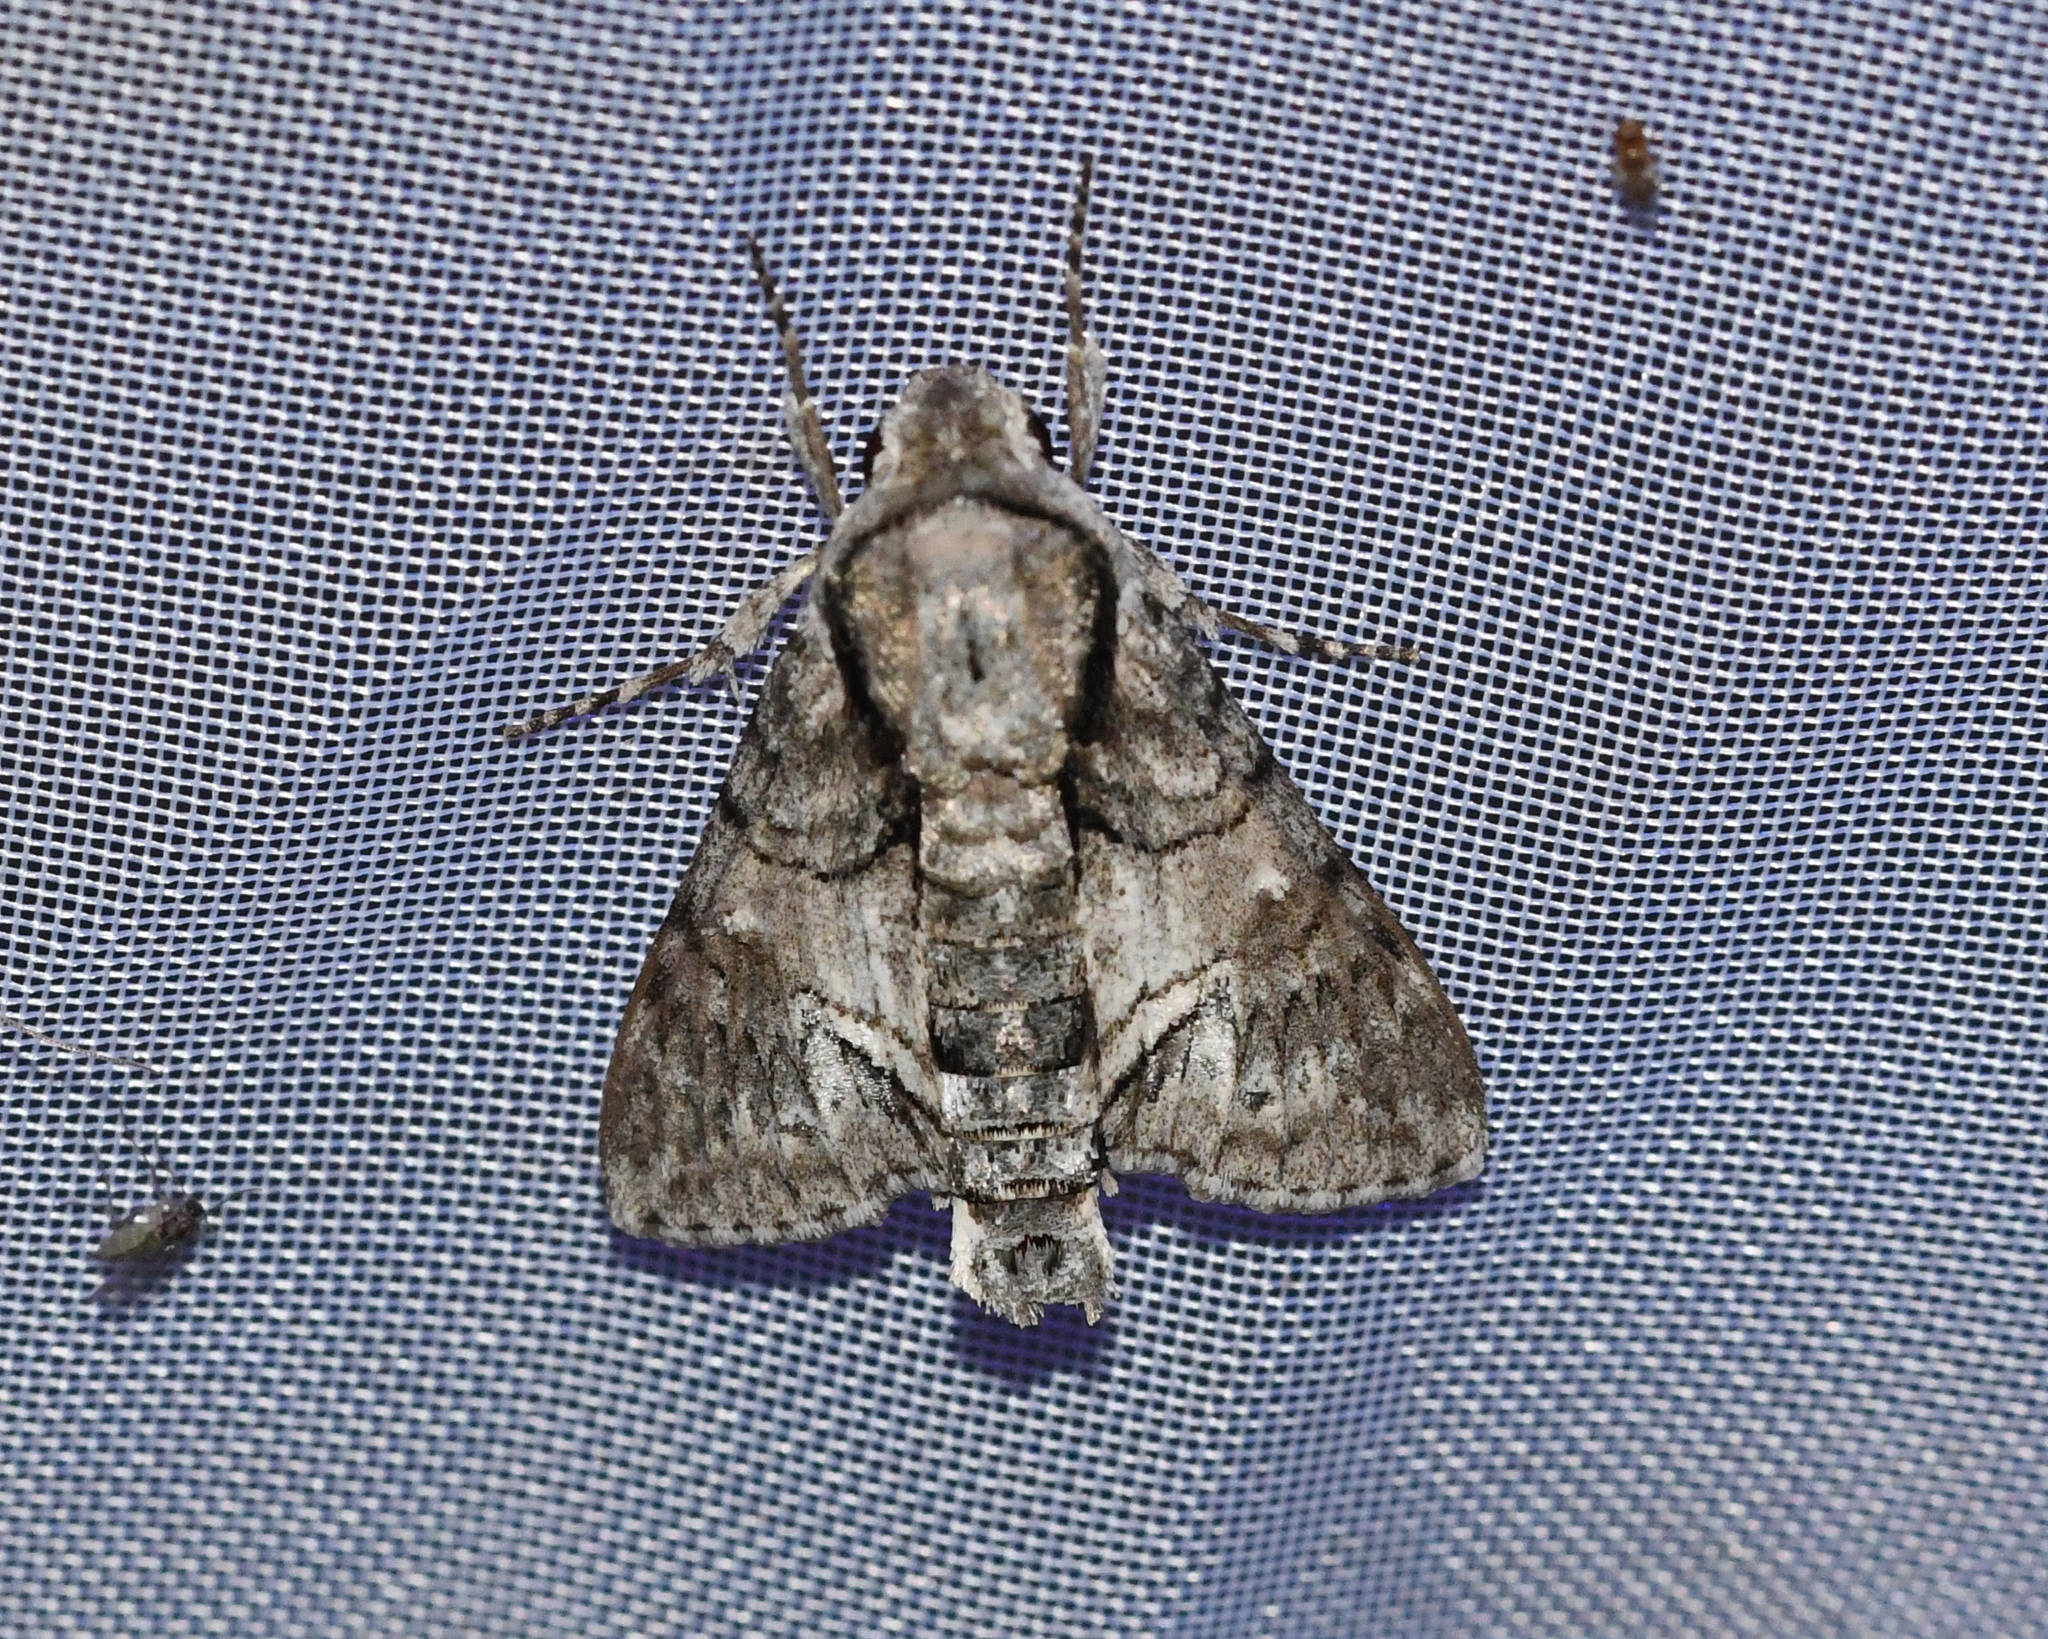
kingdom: Animalia
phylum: Arthropoda
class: Insecta
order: Lepidoptera
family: Sphingidae
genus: Cautethia
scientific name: Cautethia noctuiformis
